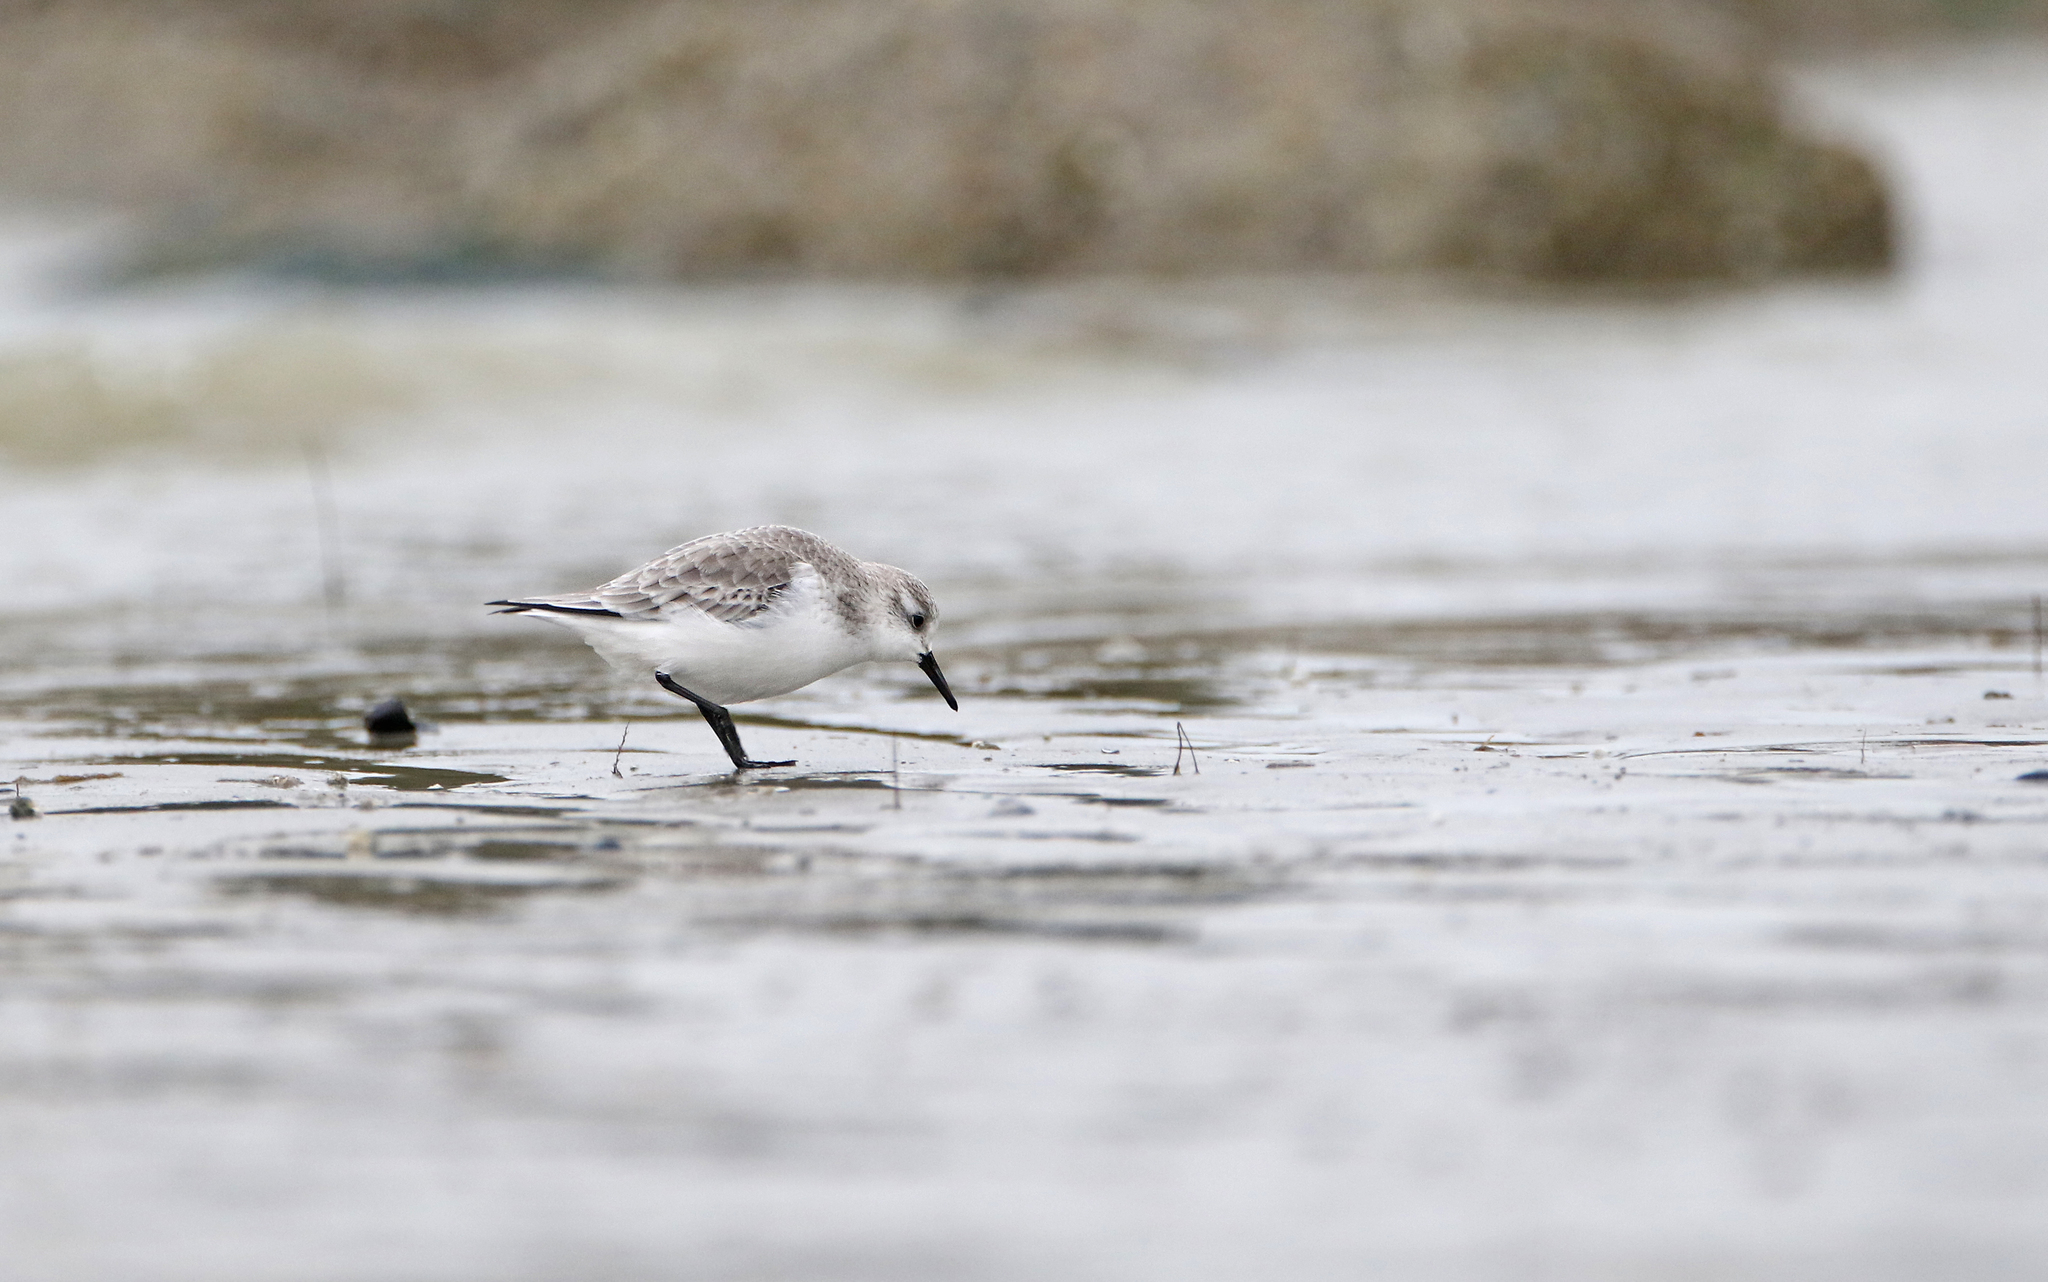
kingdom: Animalia
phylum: Chordata
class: Aves
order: Charadriiformes
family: Scolopacidae
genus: Calidris
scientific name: Calidris alba
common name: Sanderling
